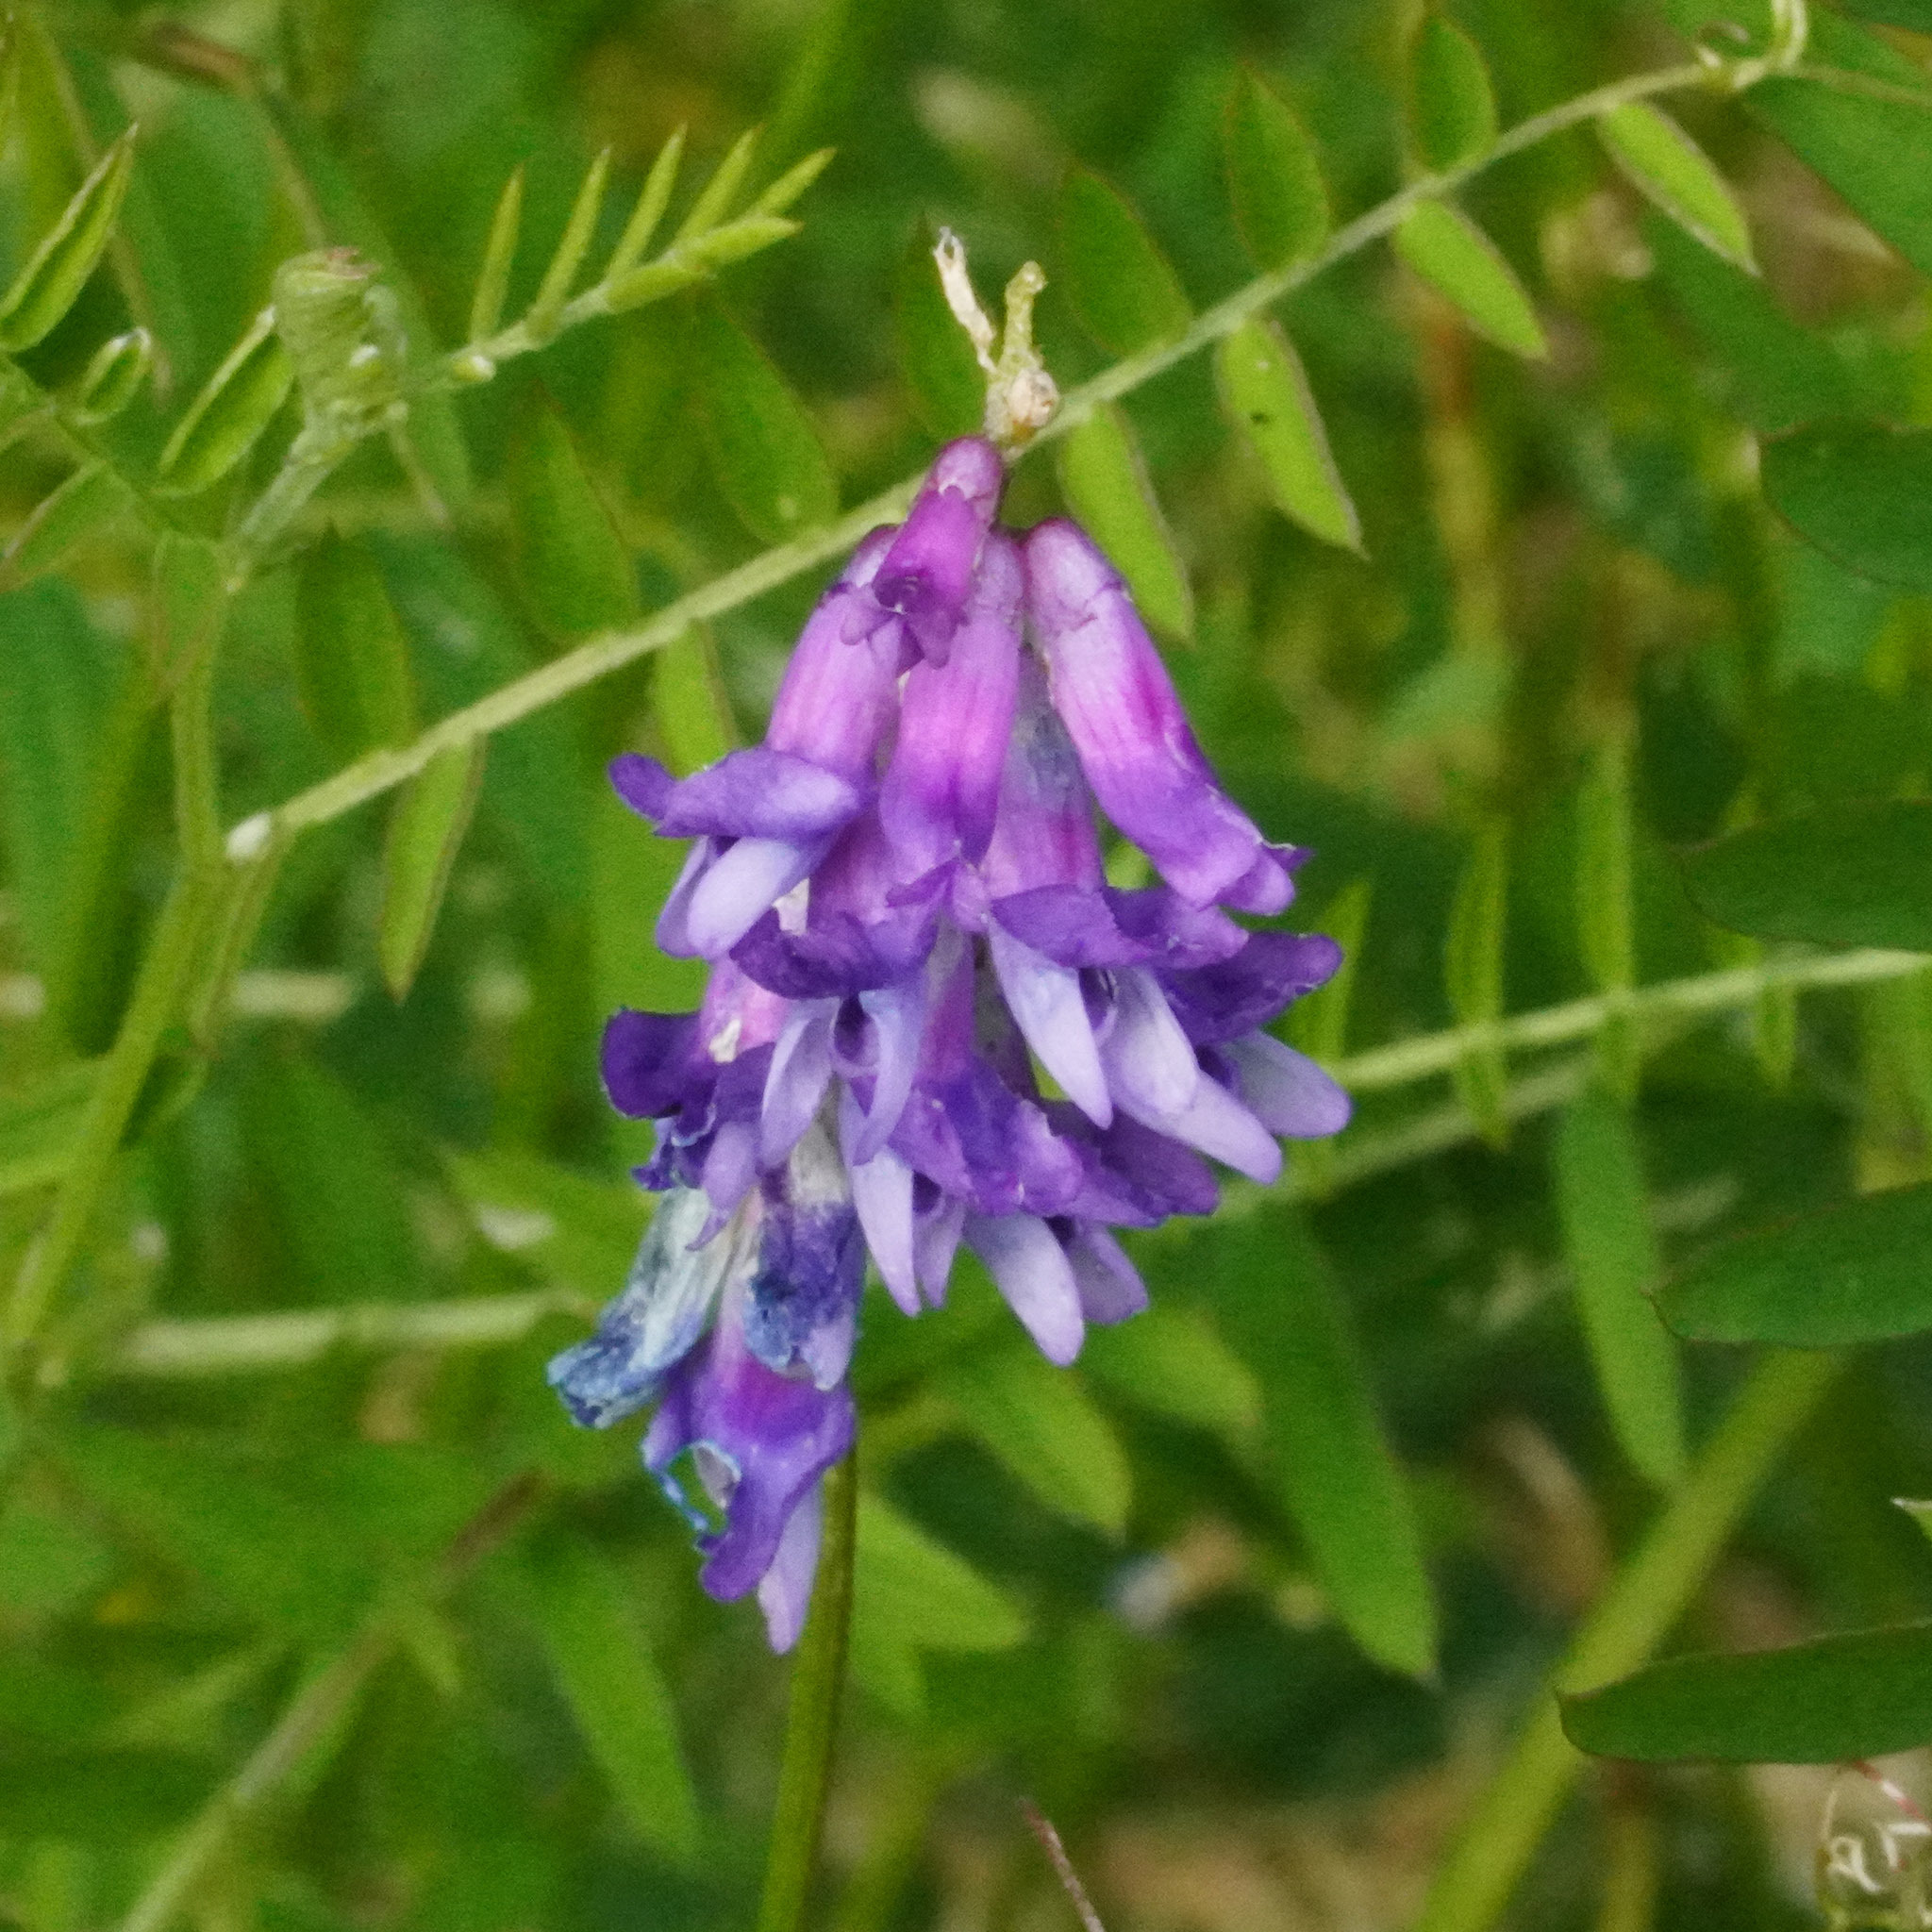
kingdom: Plantae
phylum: Tracheophyta
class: Magnoliopsida
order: Fabales
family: Fabaceae
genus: Vicia
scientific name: Vicia cracca
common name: Bird vetch
